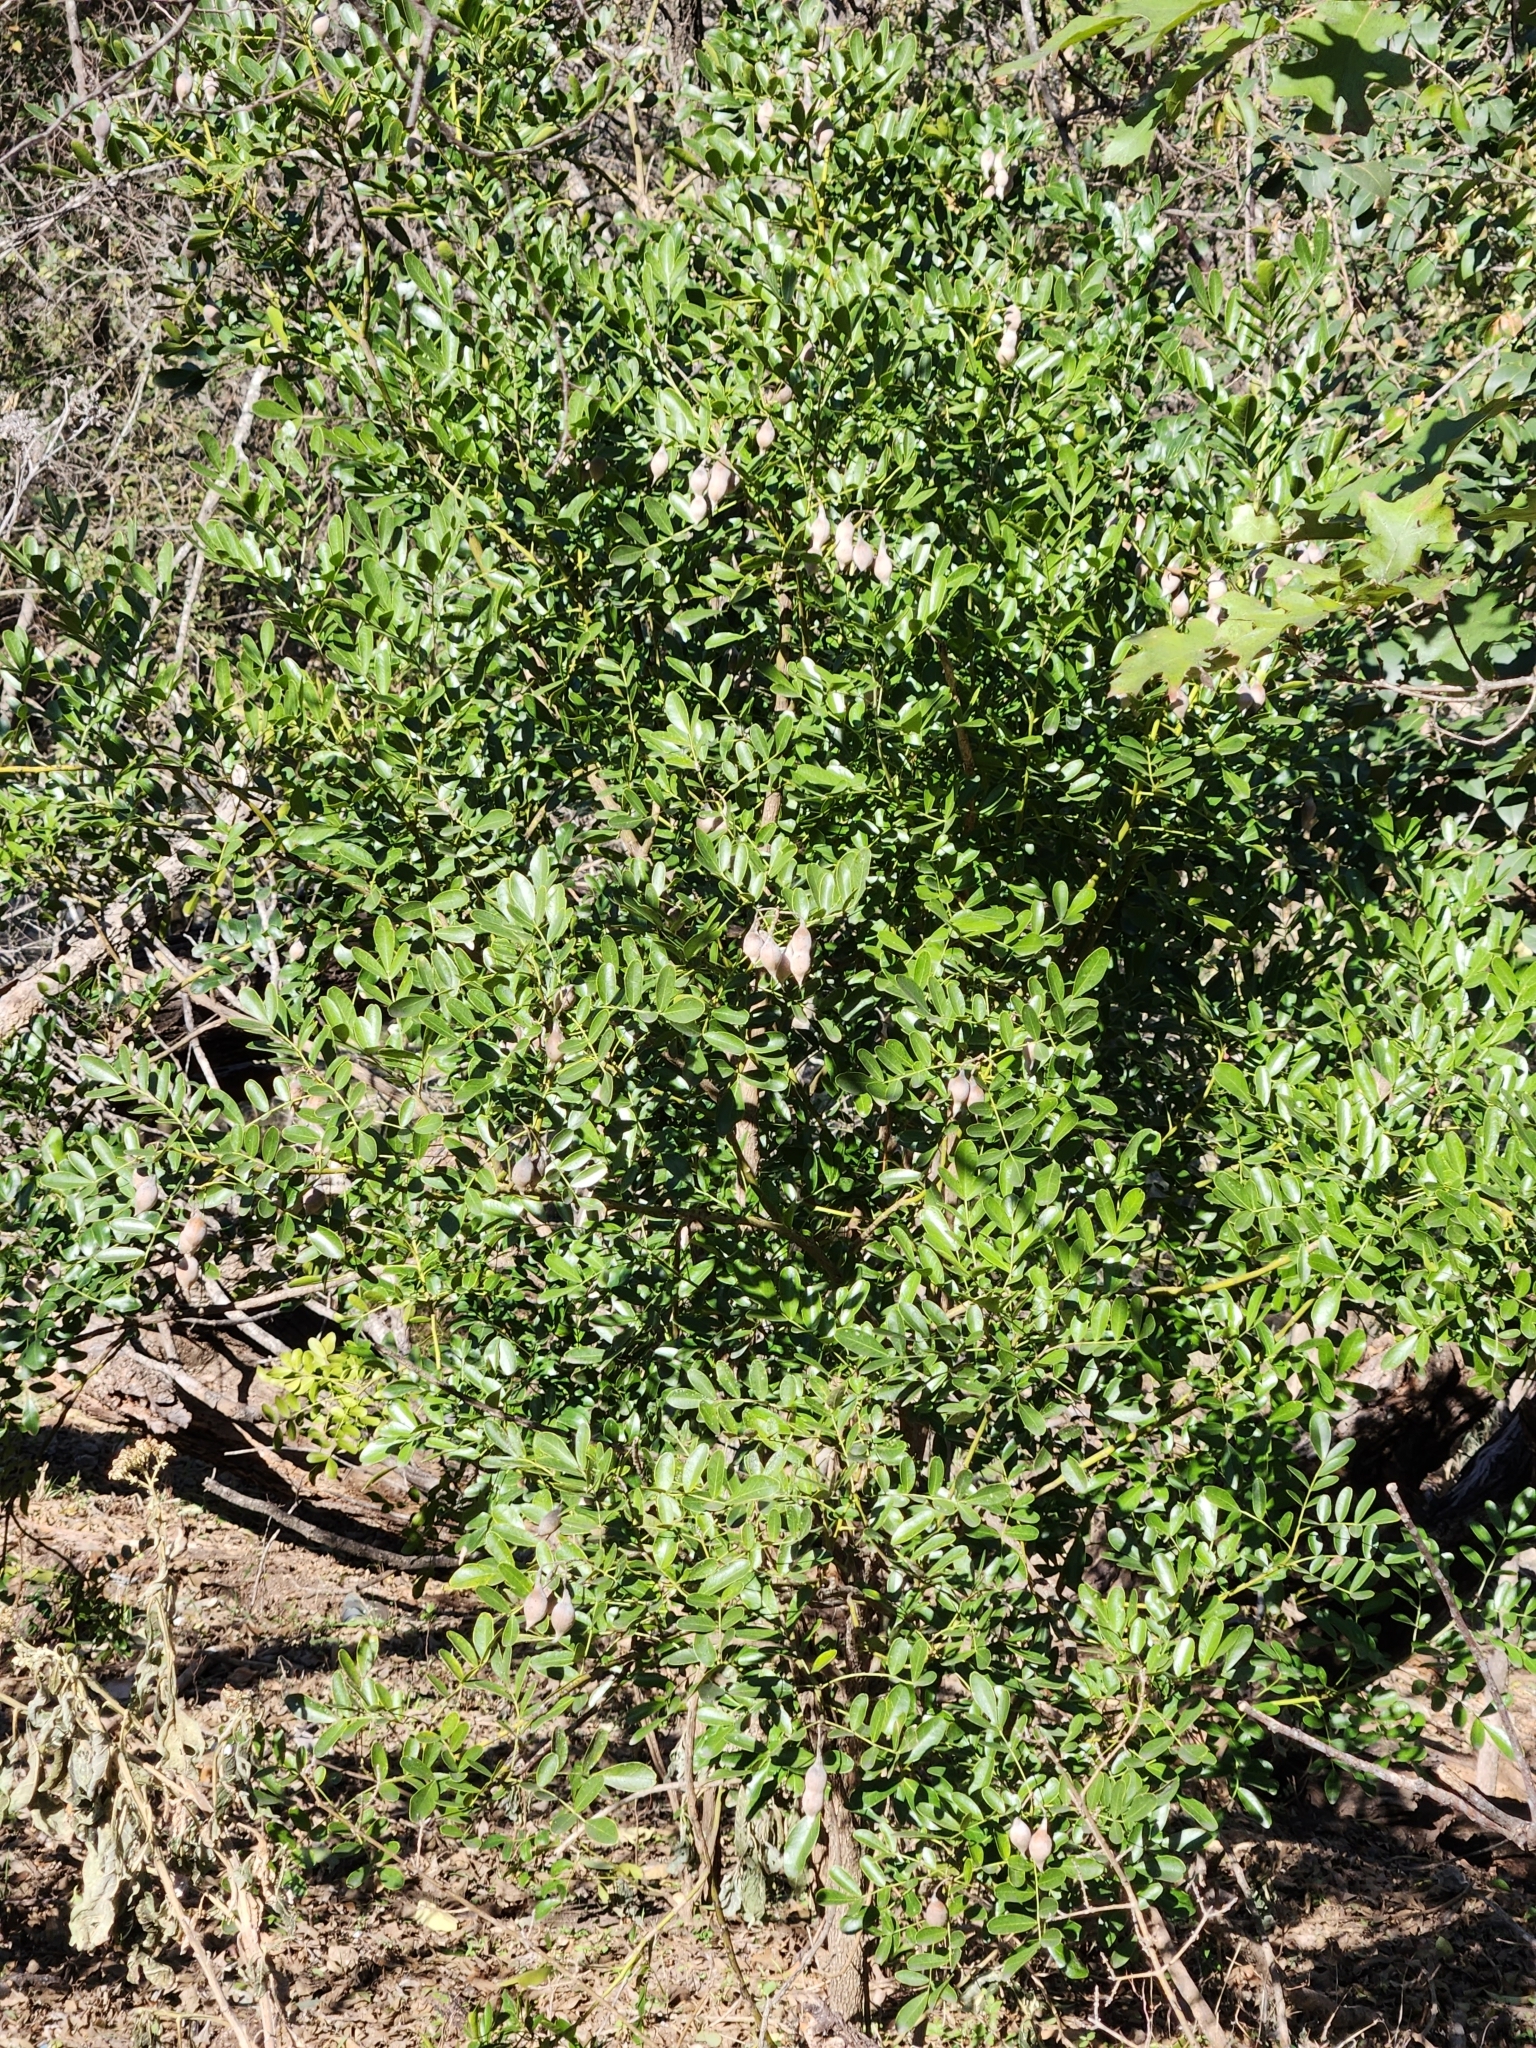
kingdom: Plantae
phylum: Tracheophyta
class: Magnoliopsida
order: Fabales
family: Fabaceae
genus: Dermatophyllum
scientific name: Dermatophyllum secundiflorum
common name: Texas-mountain-laurel
